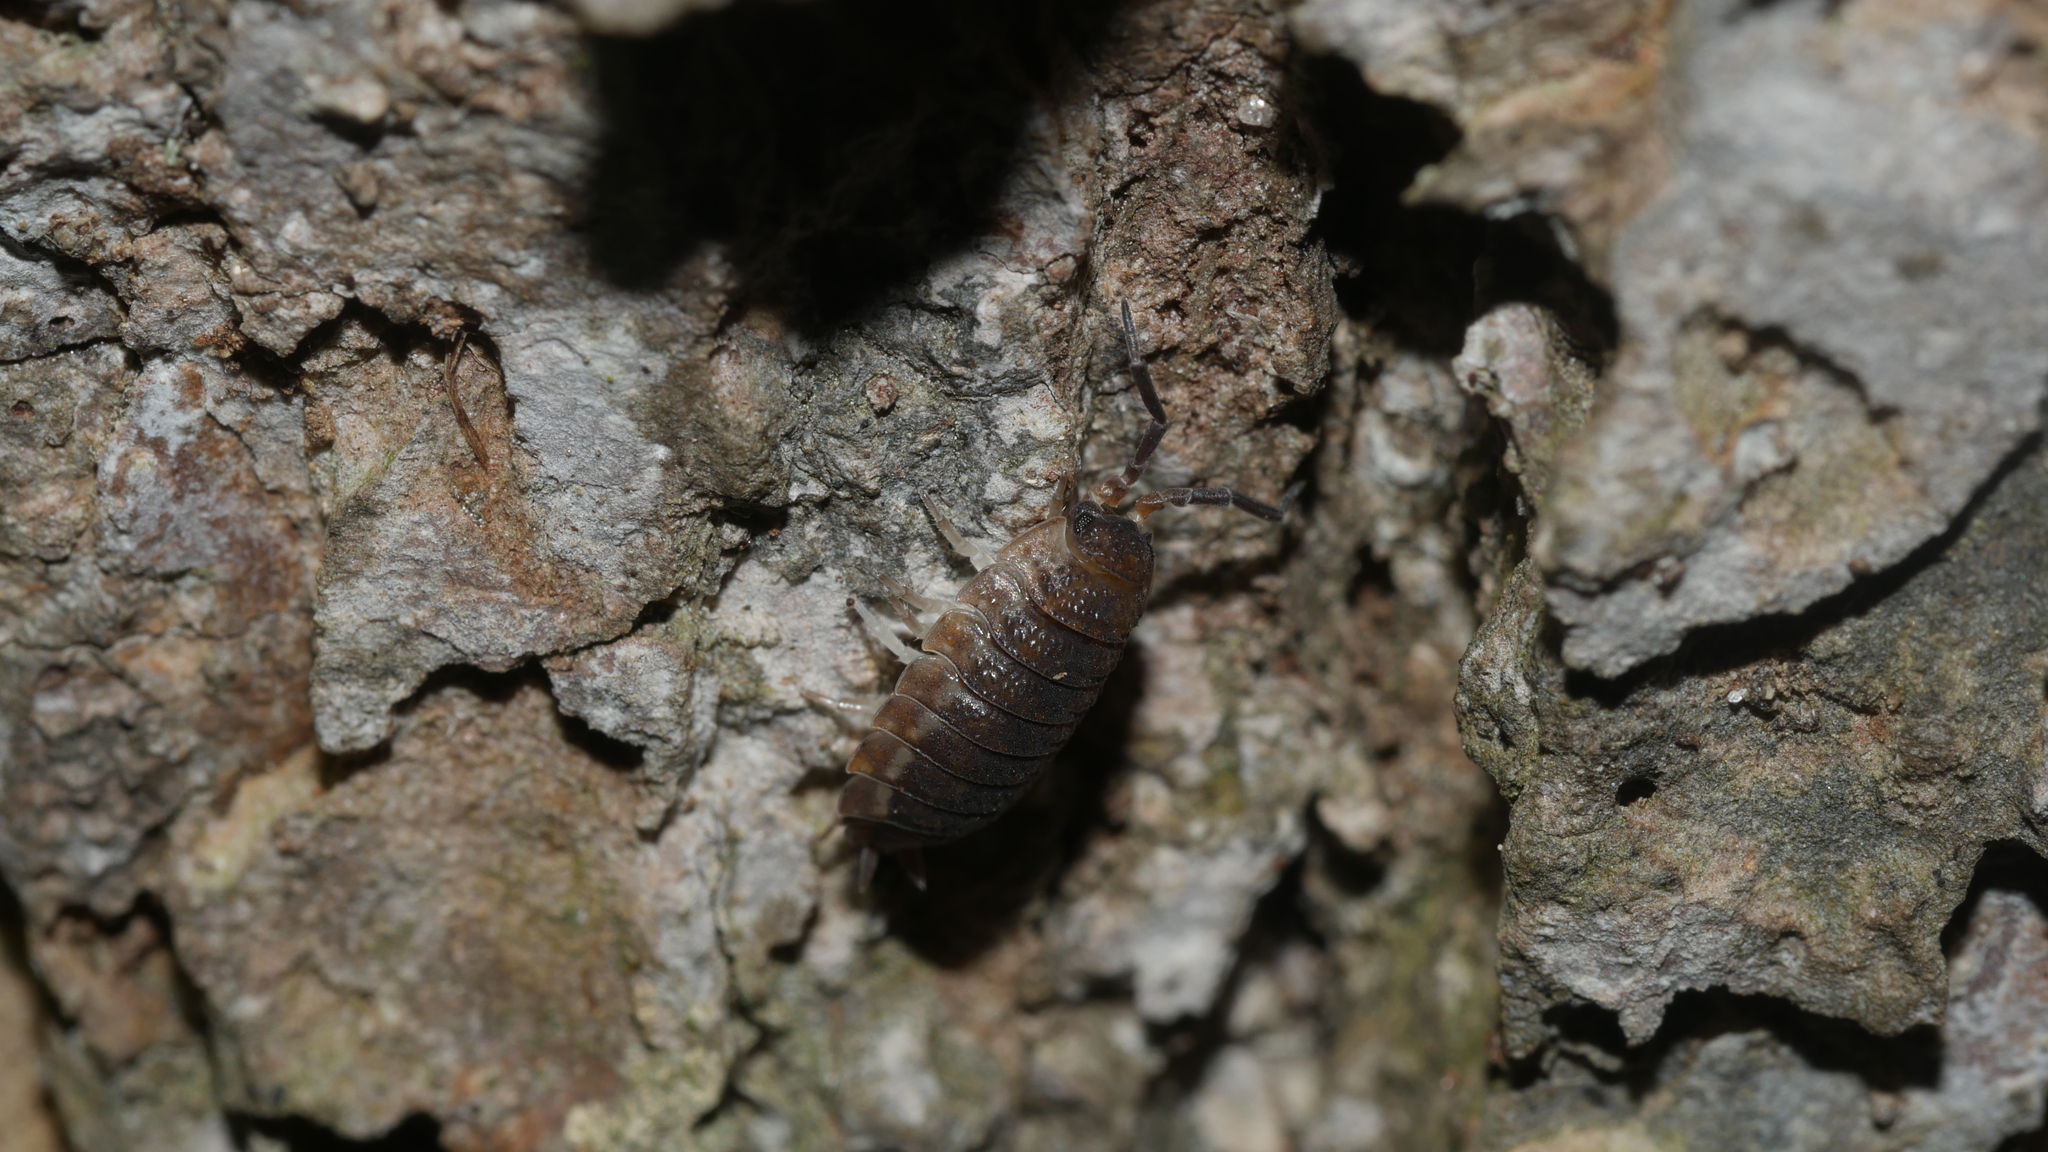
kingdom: Animalia
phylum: Arthropoda
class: Malacostraca
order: Isopoda
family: Porcellionidae
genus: Porcellio
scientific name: Porcellio scaber
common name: Common rough woodlouse
